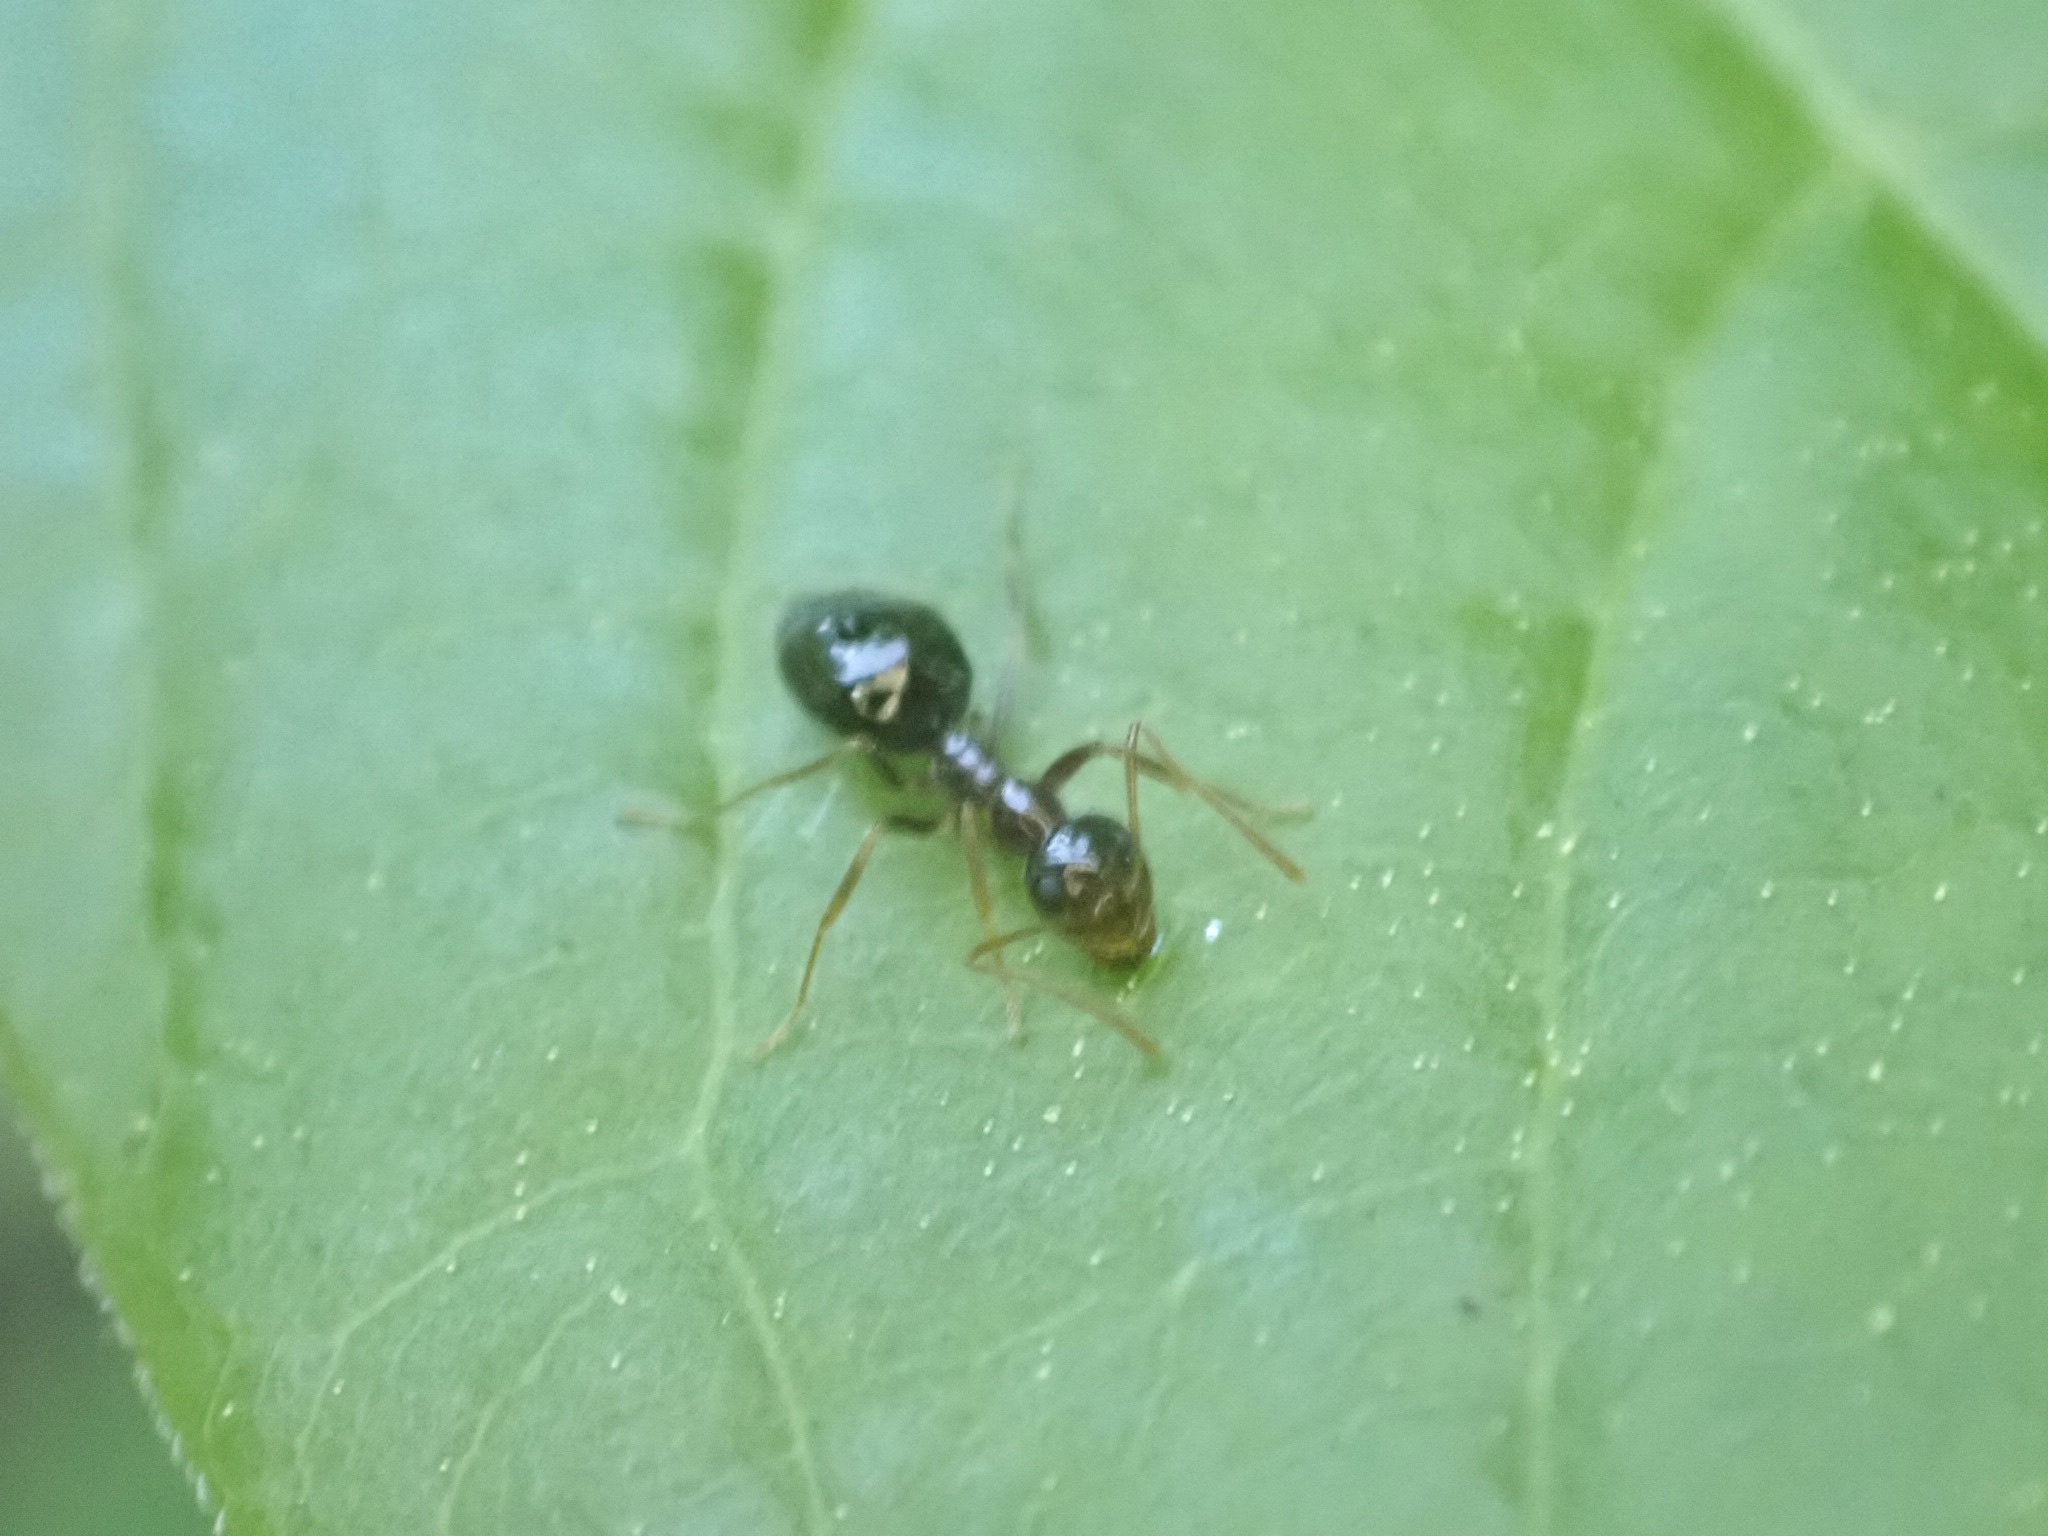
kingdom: Animalia
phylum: Arthropoda
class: Insecta
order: Hymenoptera
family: Formicidae
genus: Prenolepis
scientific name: Prenolepis imparis
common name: Small honey ant
